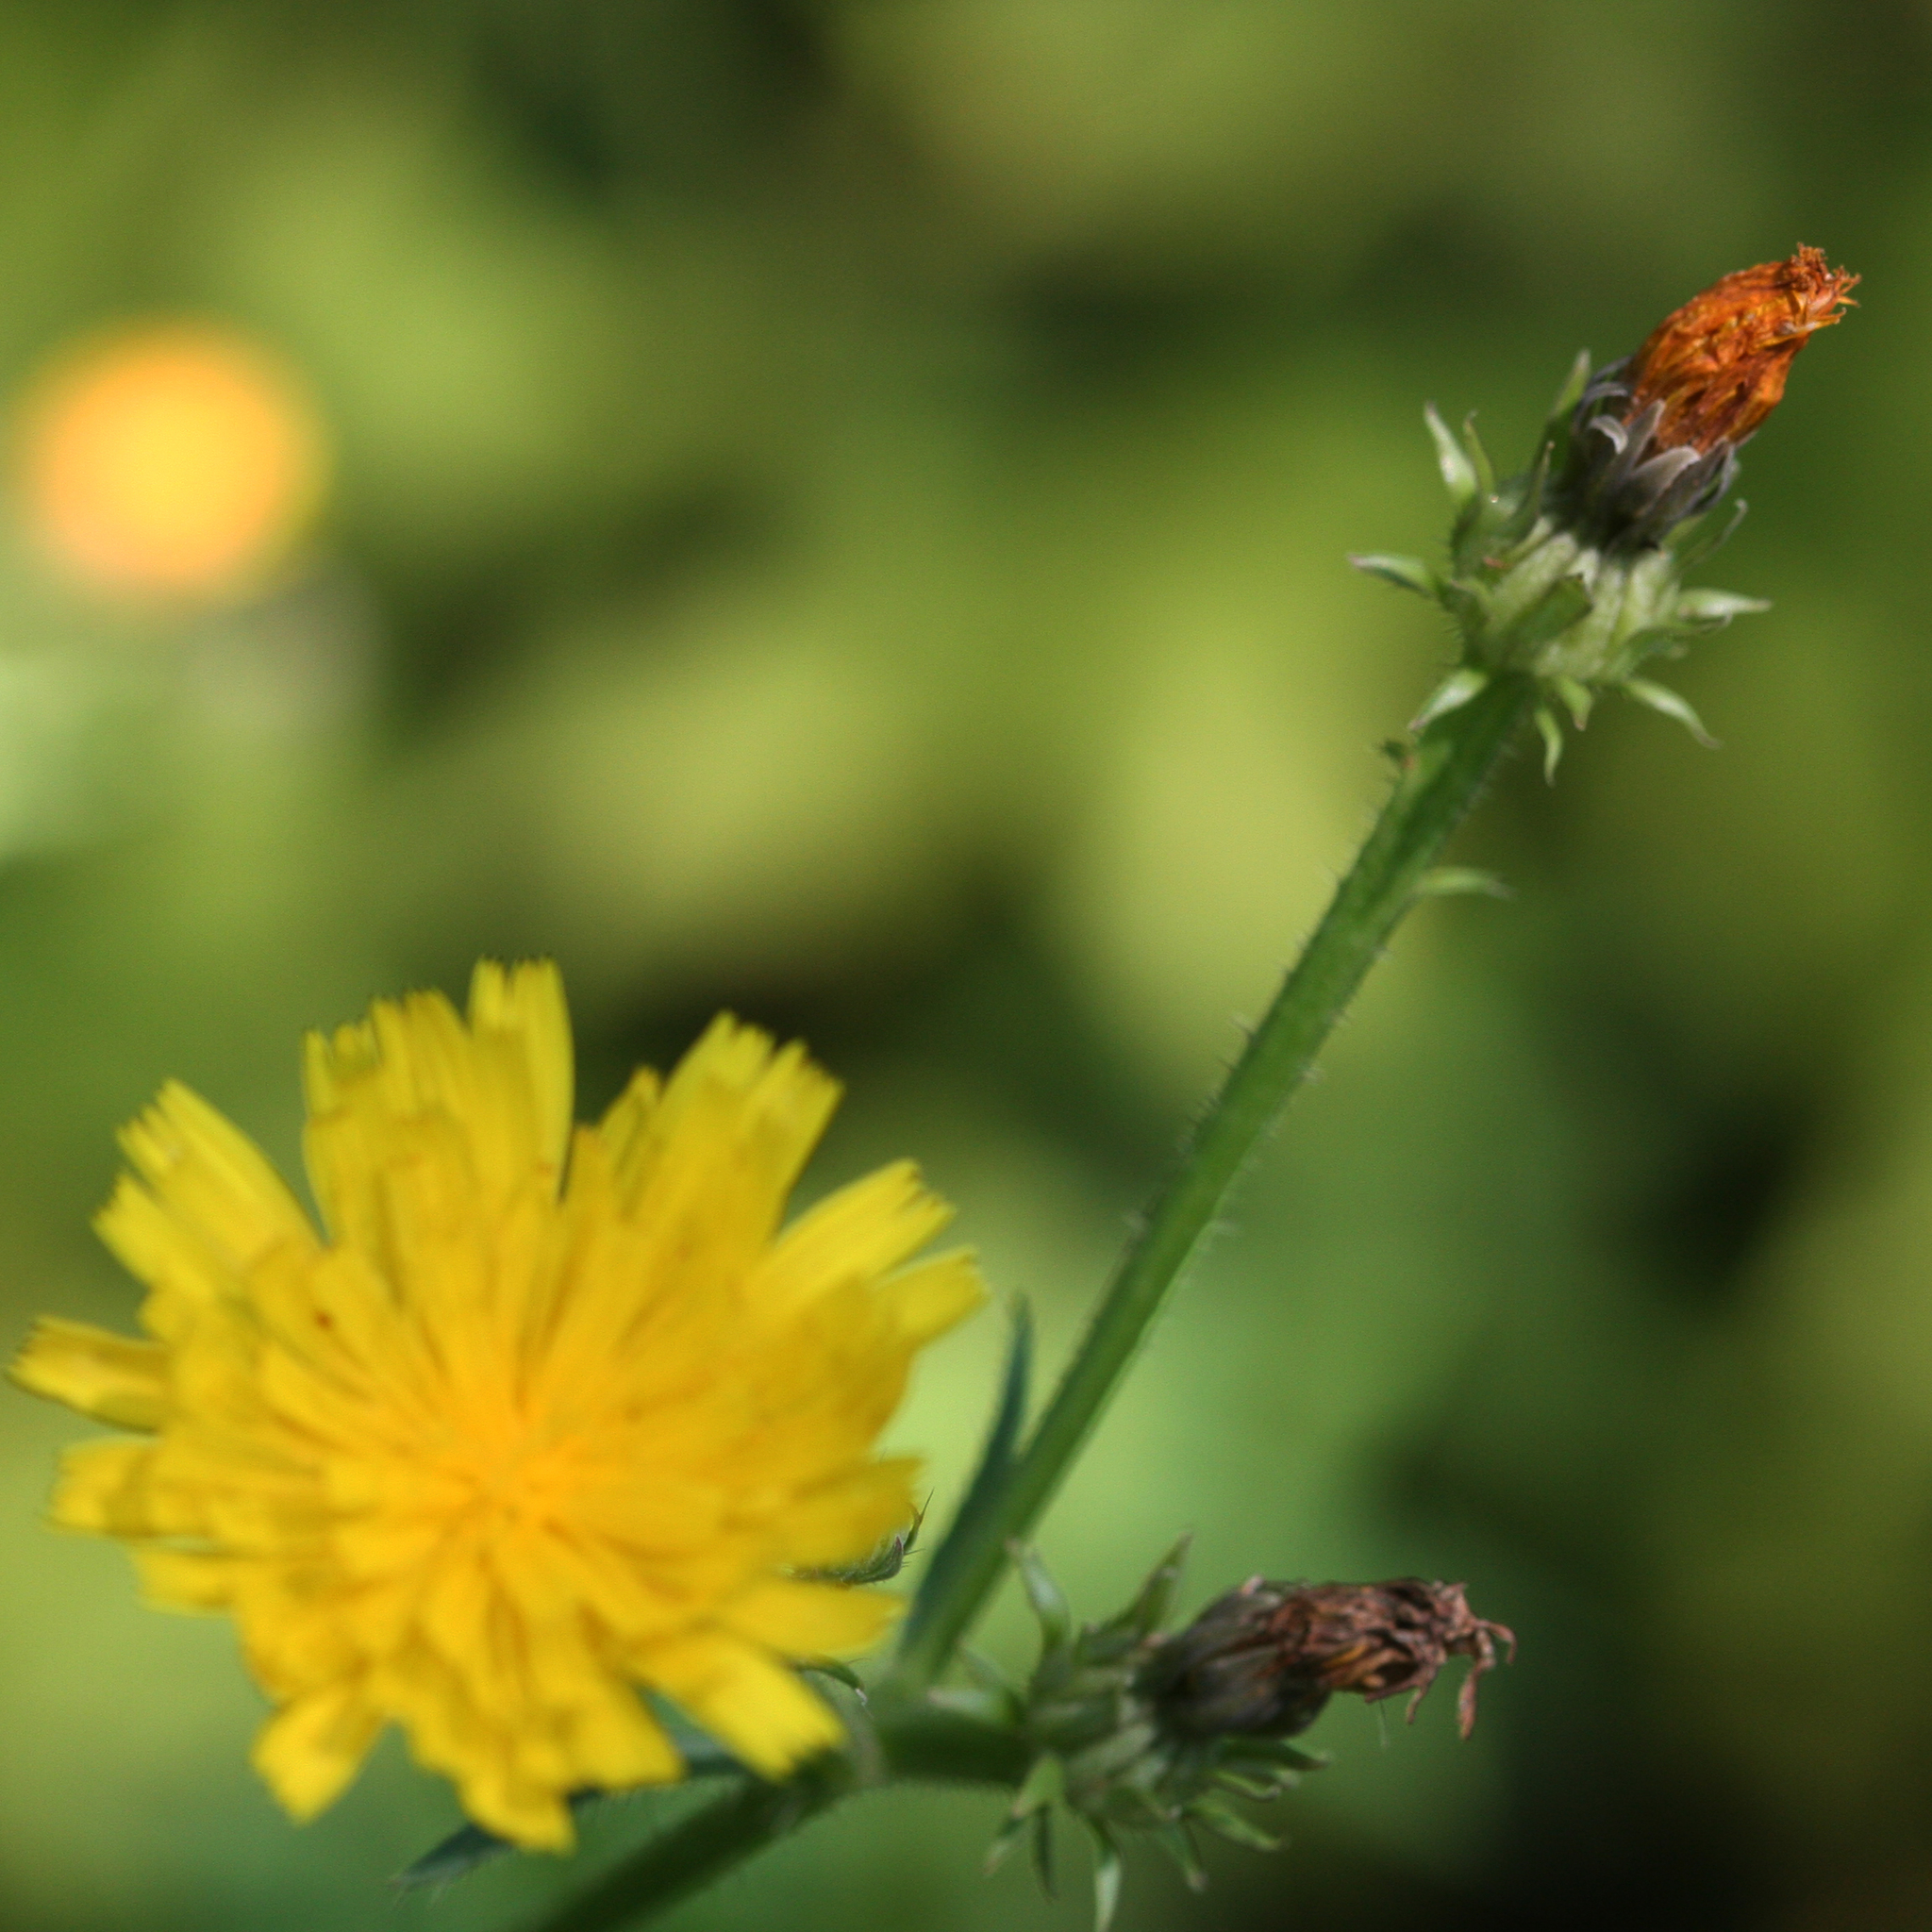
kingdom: Plantae
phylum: Tracheophyta
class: Magnoliopsida
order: Asterales
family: Asteraceae
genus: Picris
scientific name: Picris hieracioides
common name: Hawkweed oxtongue
